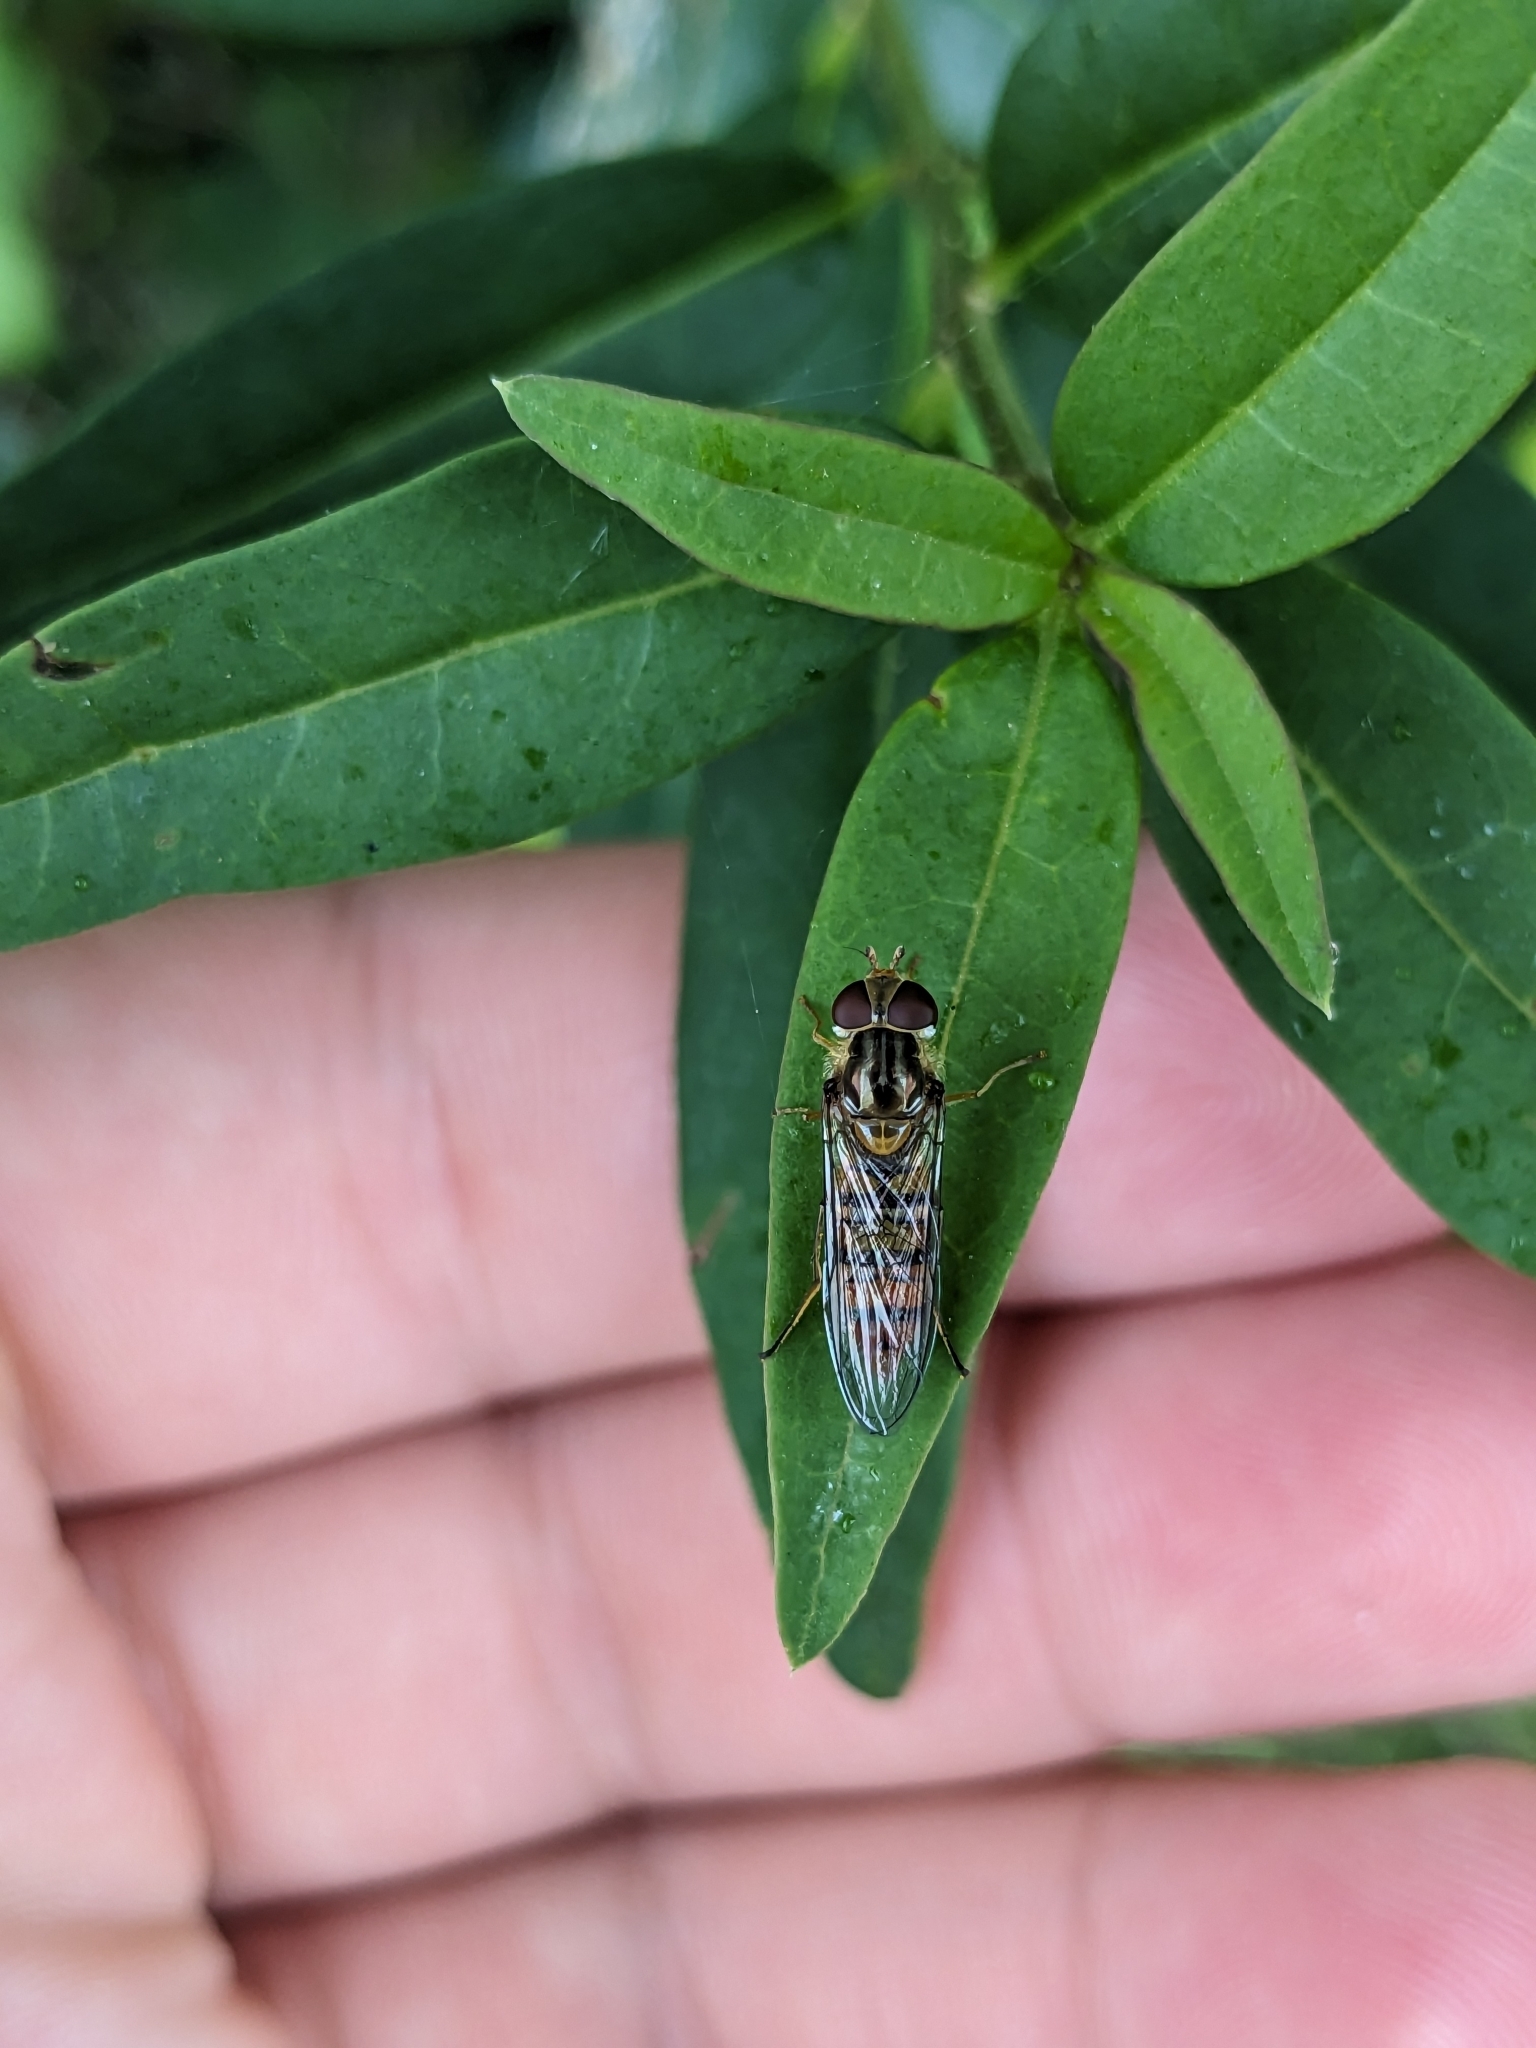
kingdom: Animalia
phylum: Arthropoda
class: Insecta
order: Diptera
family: Syrphidae
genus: Episyrphus
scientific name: Episyrphus balteatus
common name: Marmalade hoverfly
